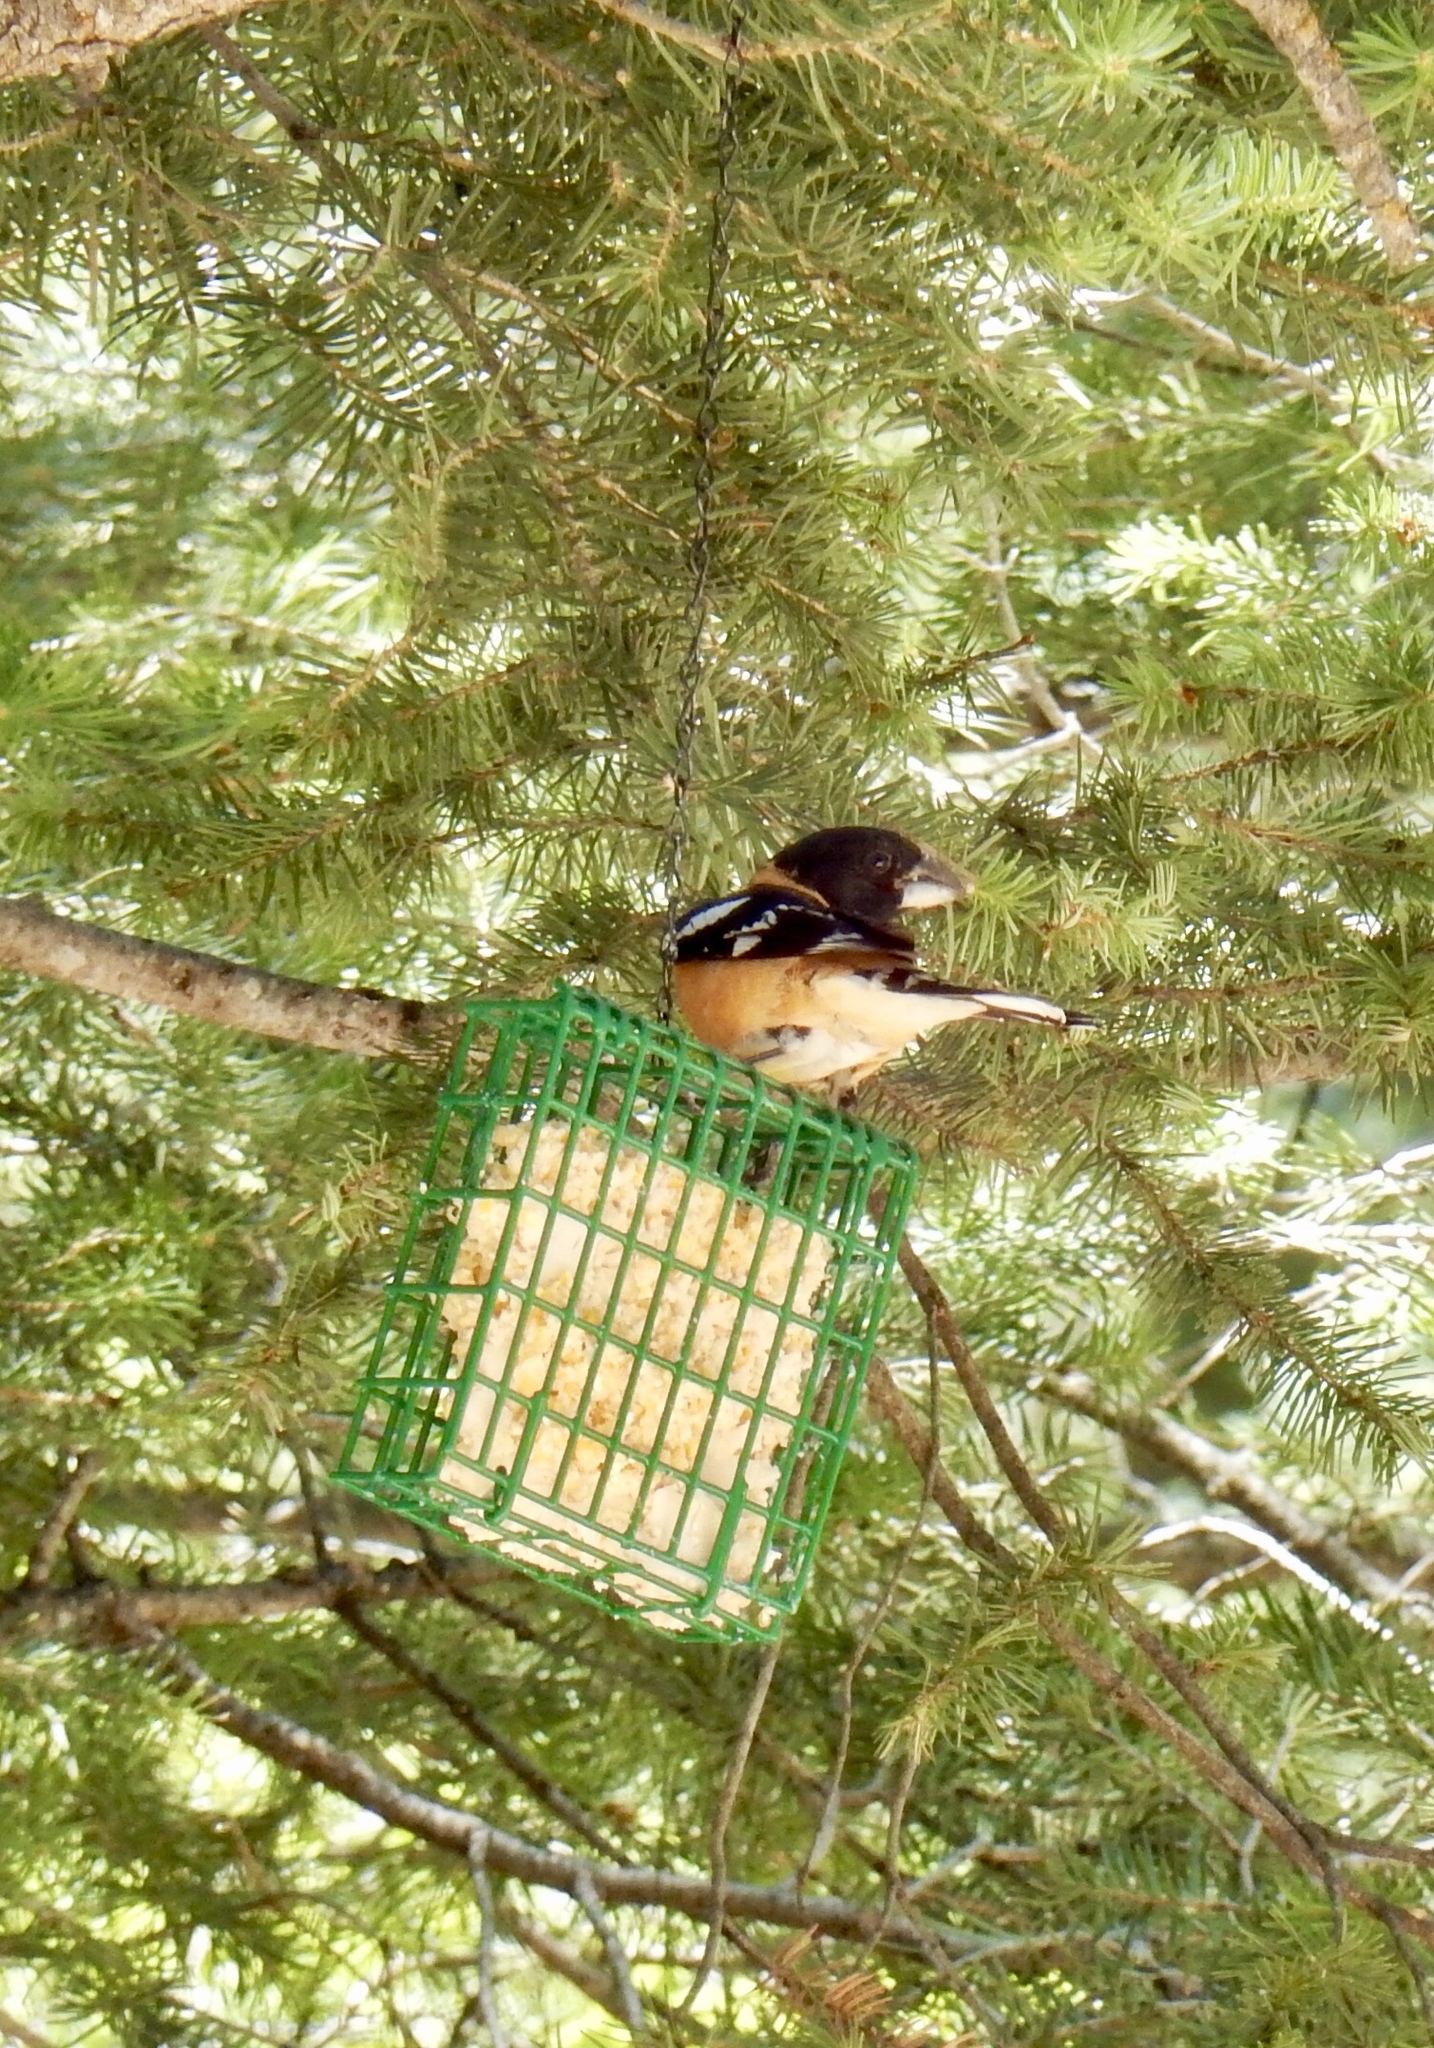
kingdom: Animalia
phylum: Chordata
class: Aves
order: Passeriformes
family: Cardinalidae
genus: Pheucticus
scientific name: Pheucticus melanocephalus
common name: Black-headed grosbeak
